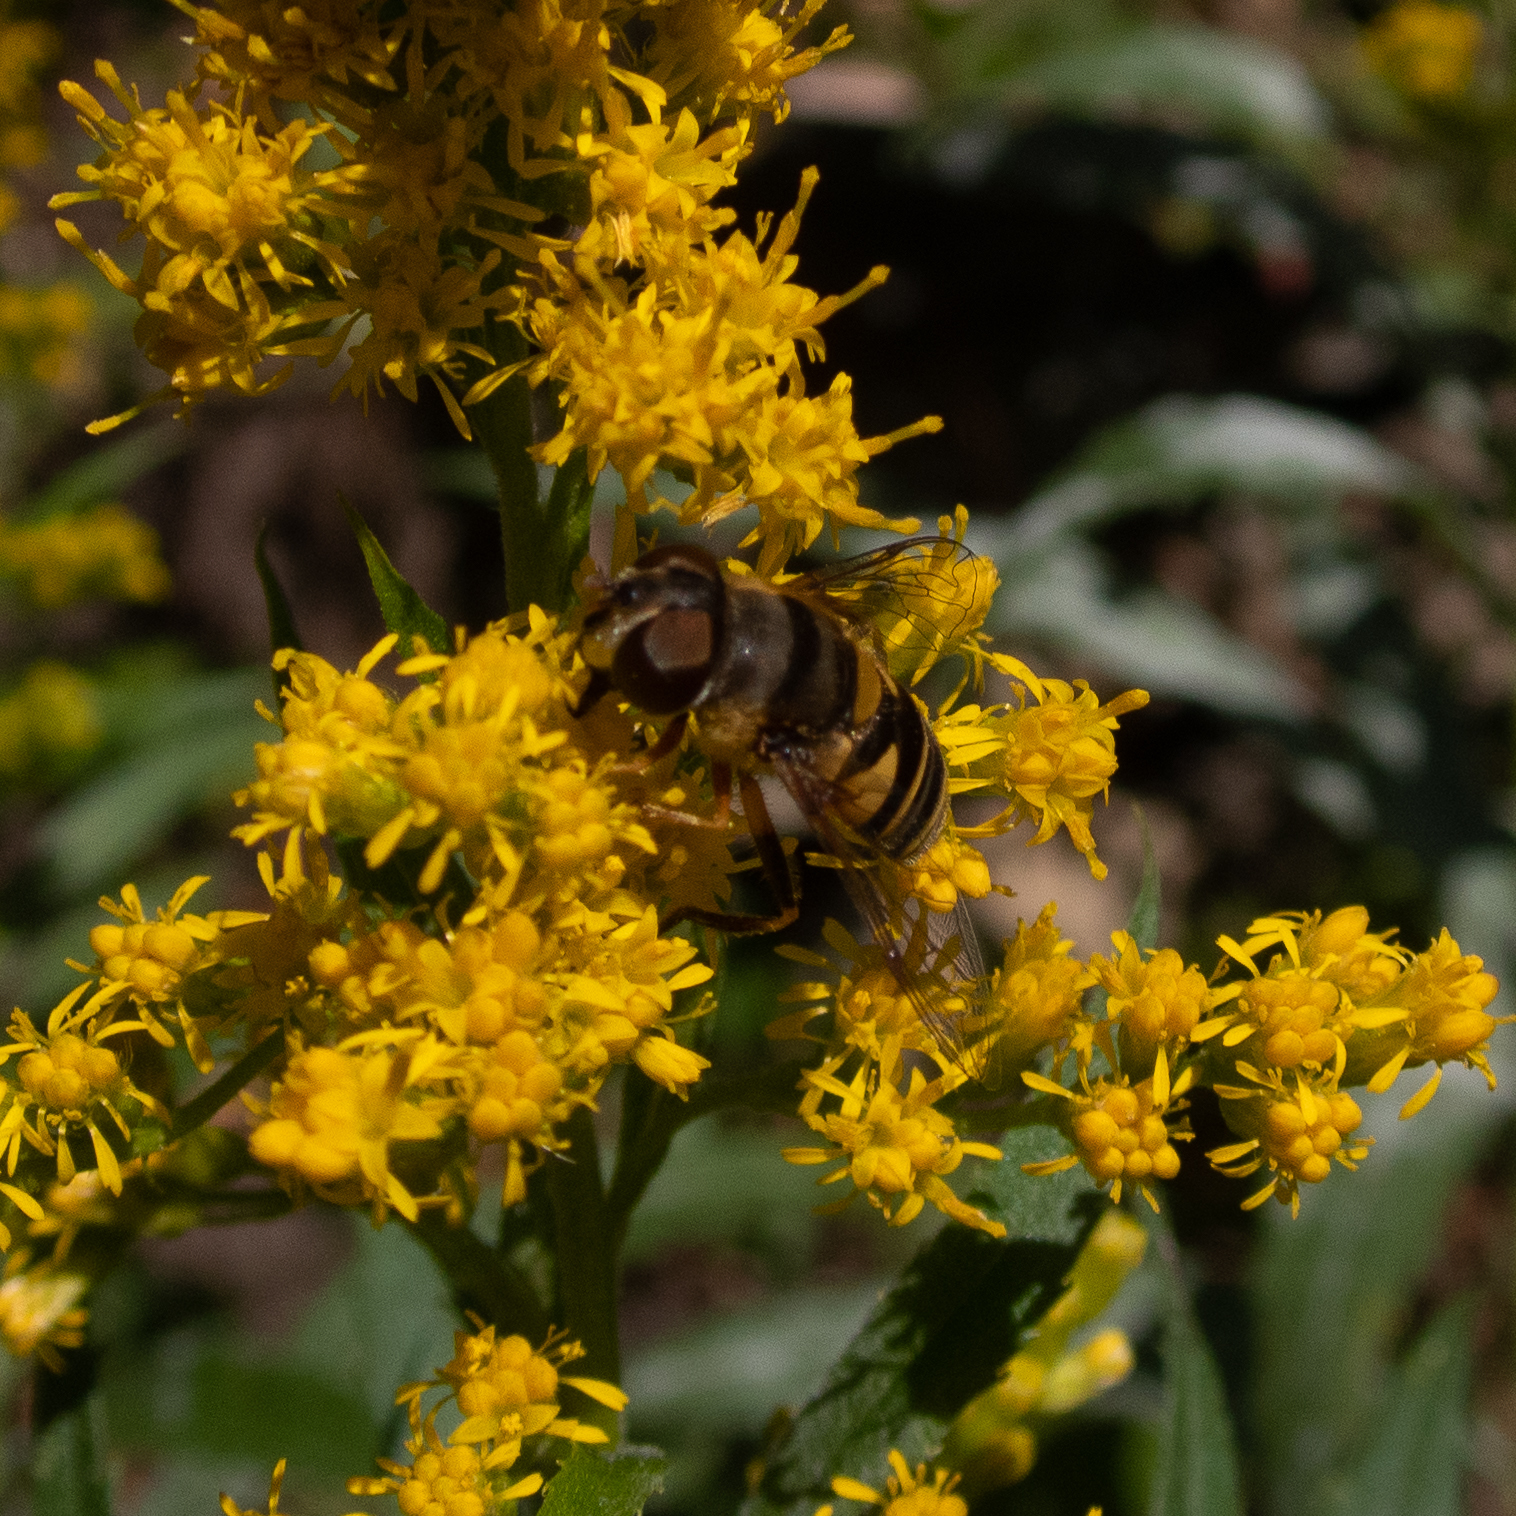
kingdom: Animalia
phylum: Arthropoda
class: Insecta
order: Diptera
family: Syrphidae
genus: Eristalis
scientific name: Eristalis transversa
